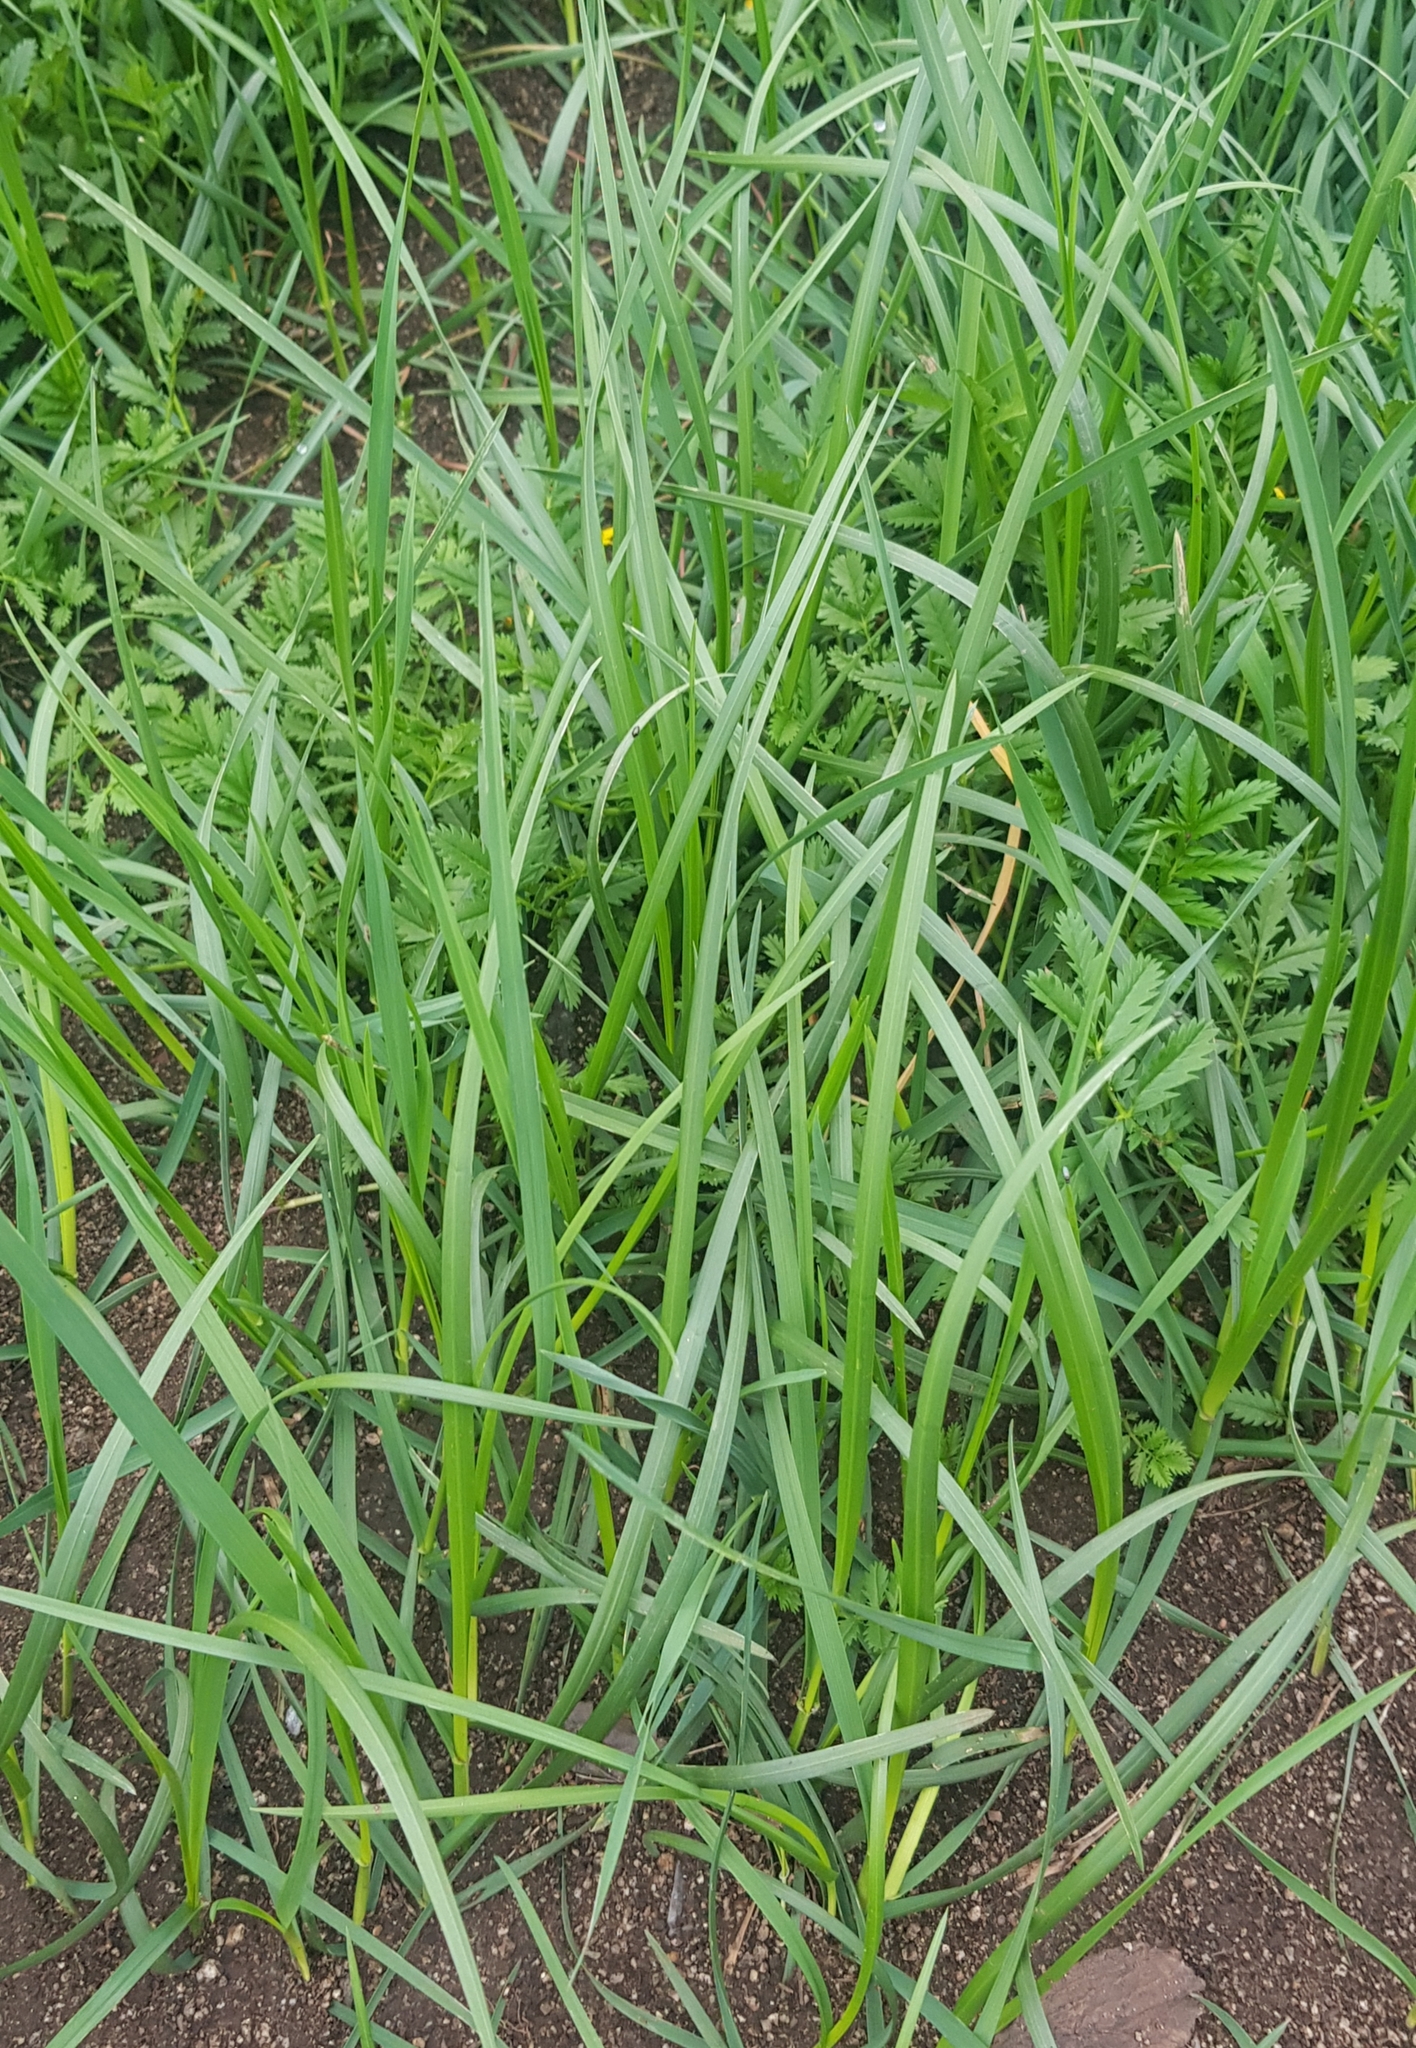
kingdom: Plantae
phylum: Tracheophyta
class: Liliopsida
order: Poales
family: Poaceae
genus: Elymus
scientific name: Elymus repens
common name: Quackgrass
